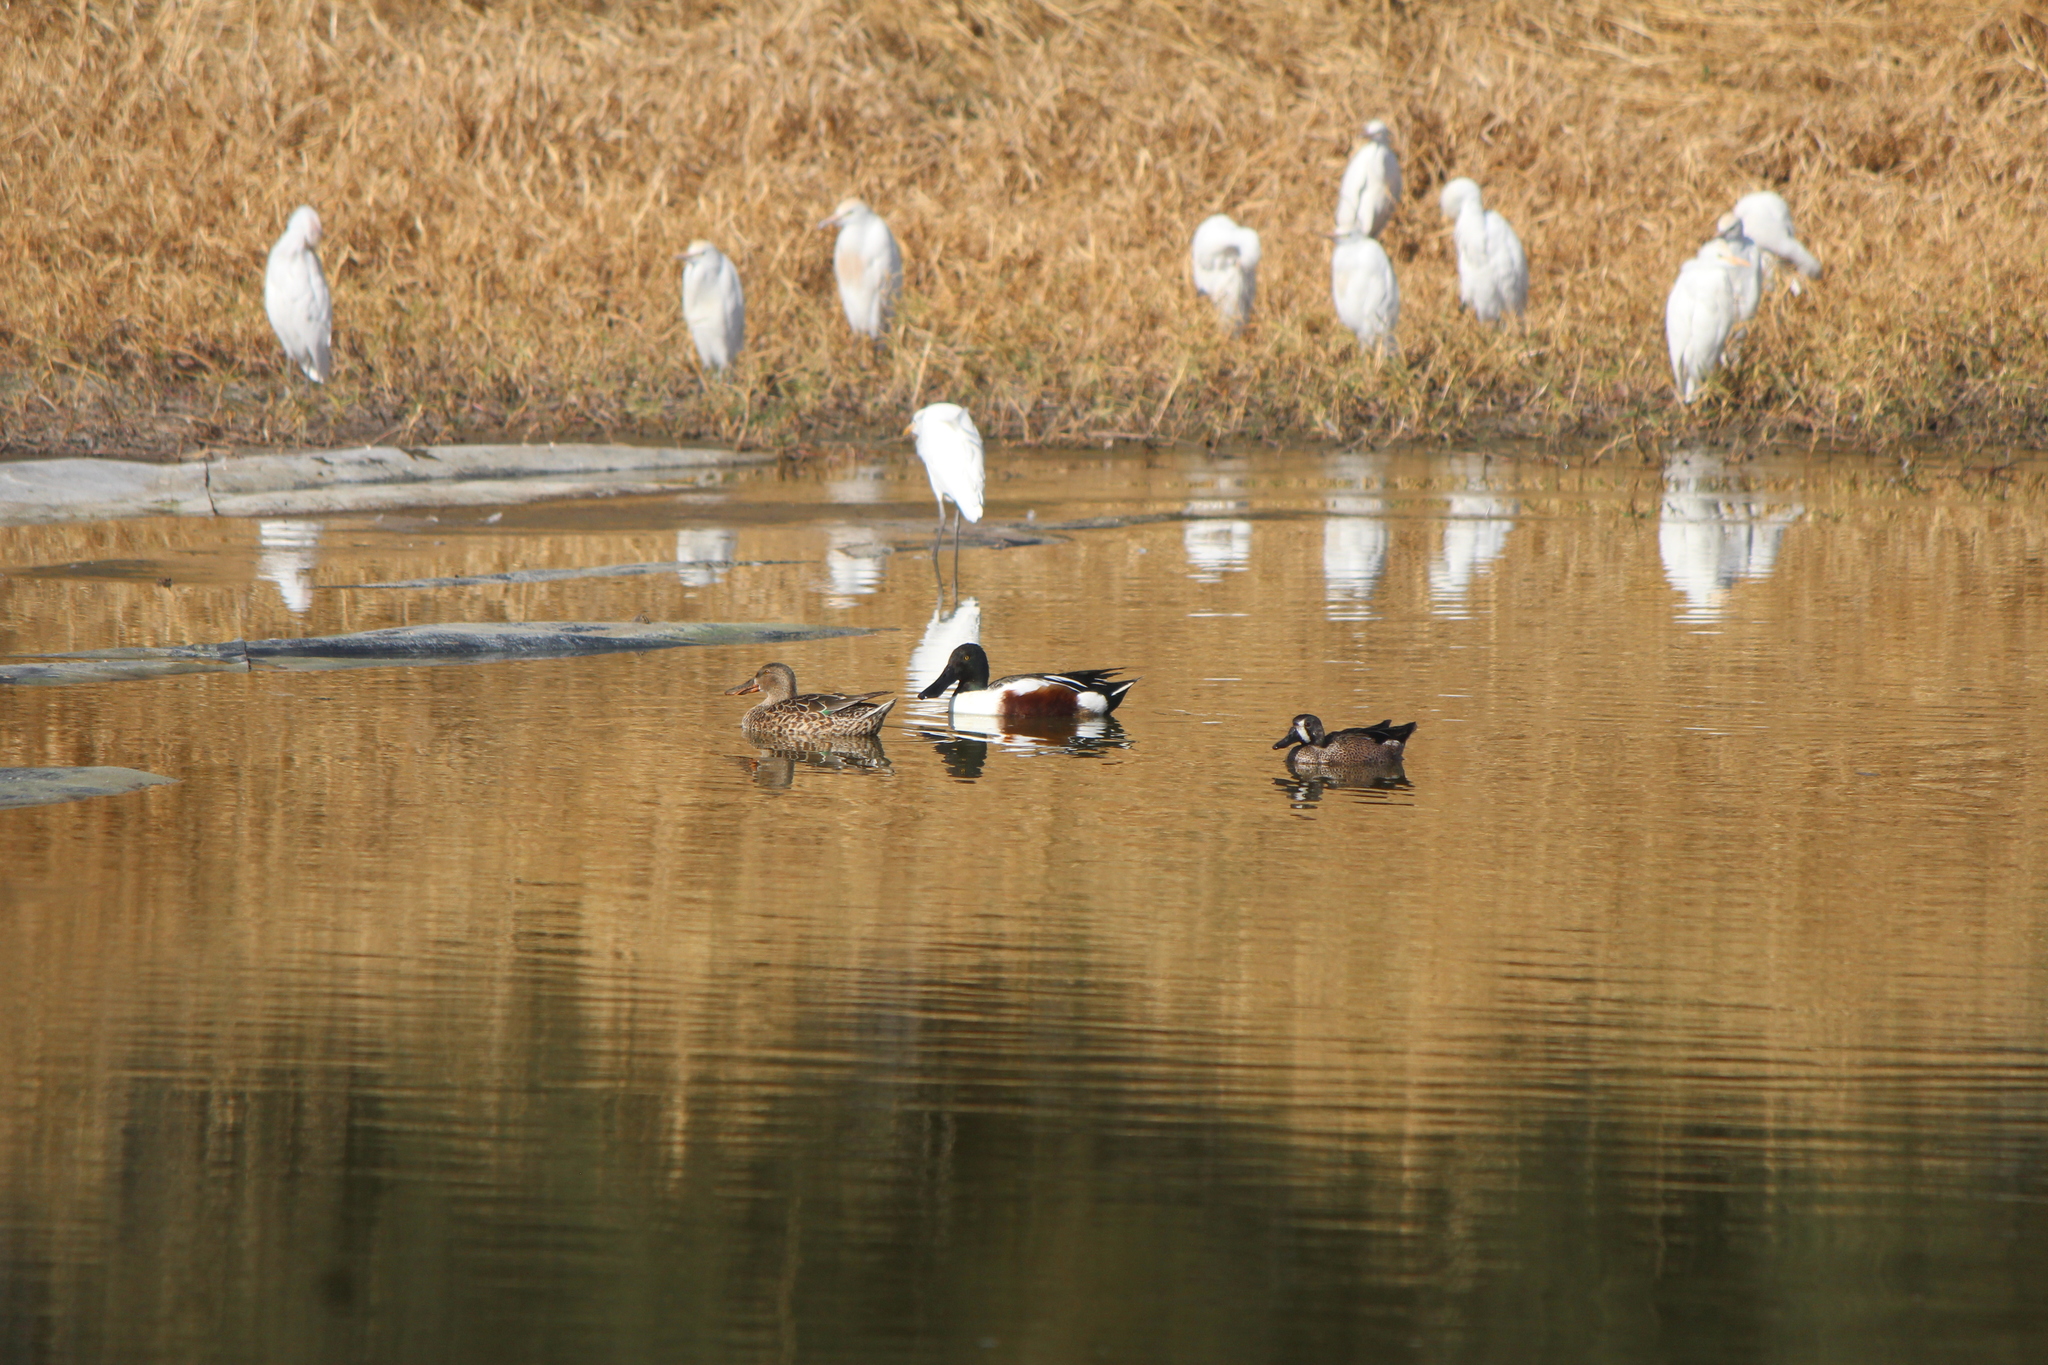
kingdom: Animalia
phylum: Chordata
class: Aves
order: Anseriformes
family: Anatidae
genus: Spatula
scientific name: Spatula clypeata
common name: Northern shoveler
